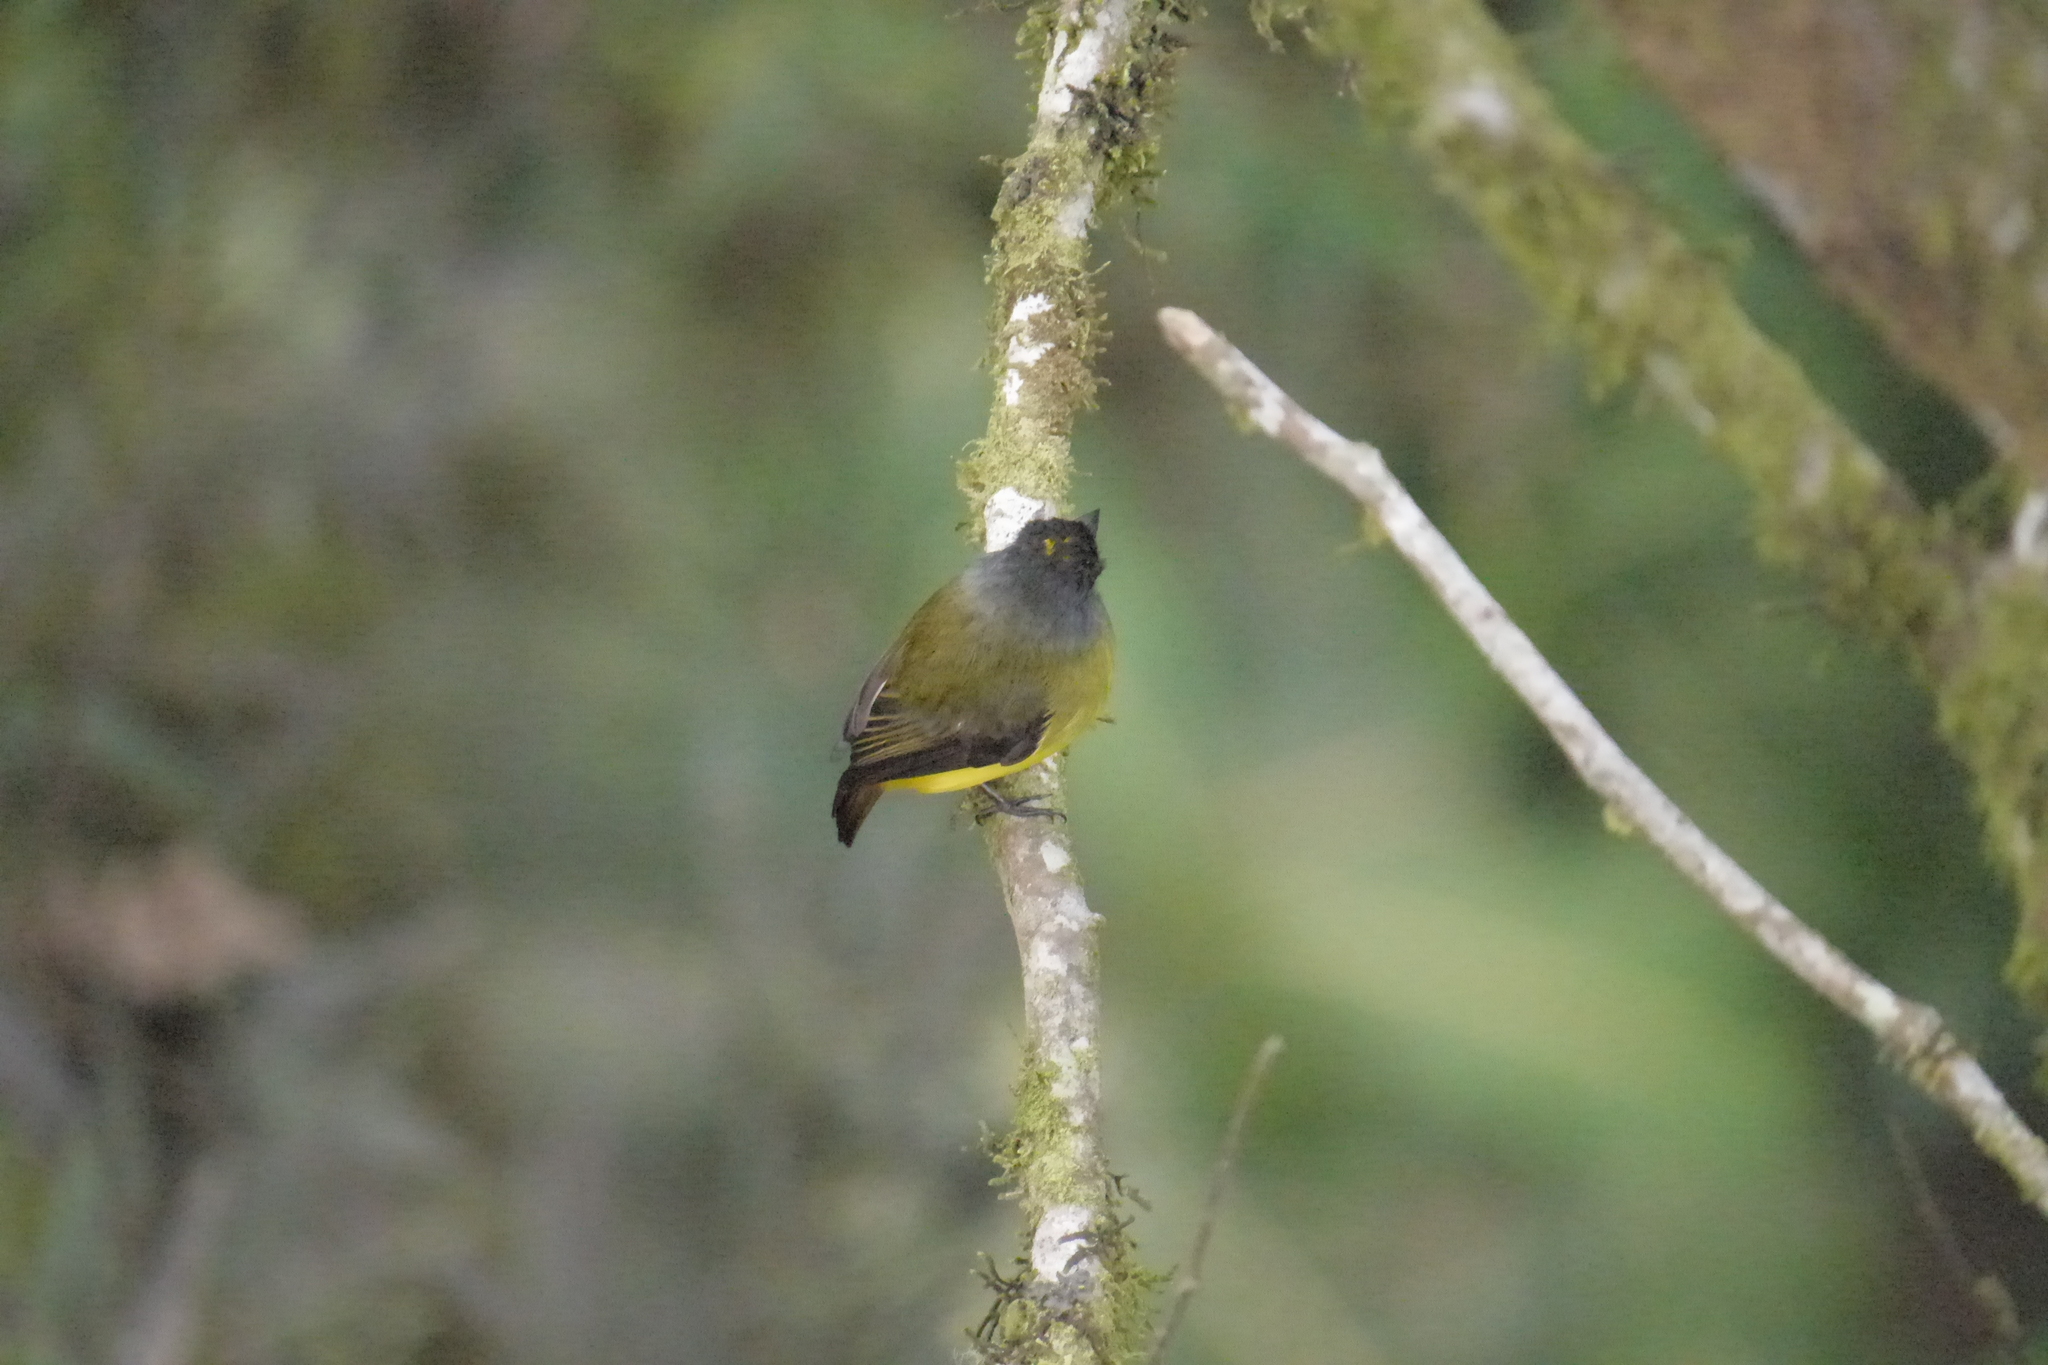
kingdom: Animalia
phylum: Chordata
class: Aves
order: Passeriformes
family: Tyrannidae
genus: Myiotriccus
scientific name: Myiotriccus ornatus
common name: Ornate flycatcher
